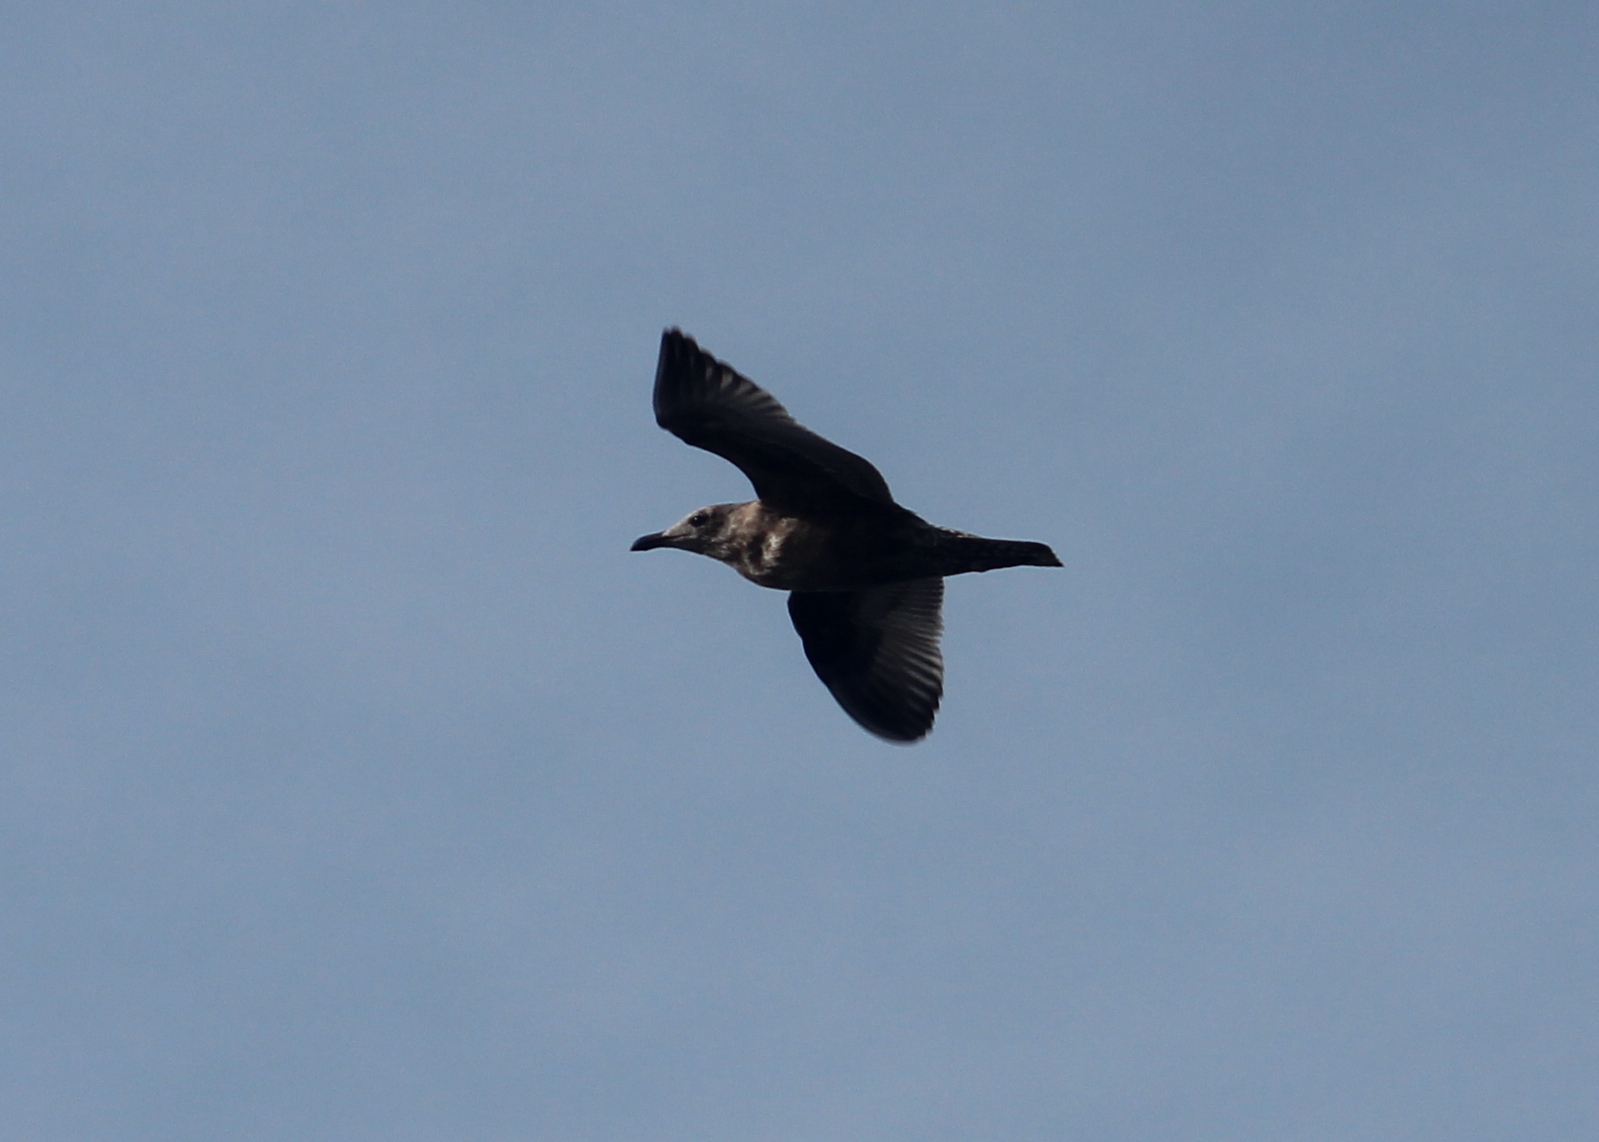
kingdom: Animalia
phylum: Chordata
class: Aves
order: Charadriiformes
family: Laridae
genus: Larus
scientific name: Larus argentatus
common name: Herring gull
